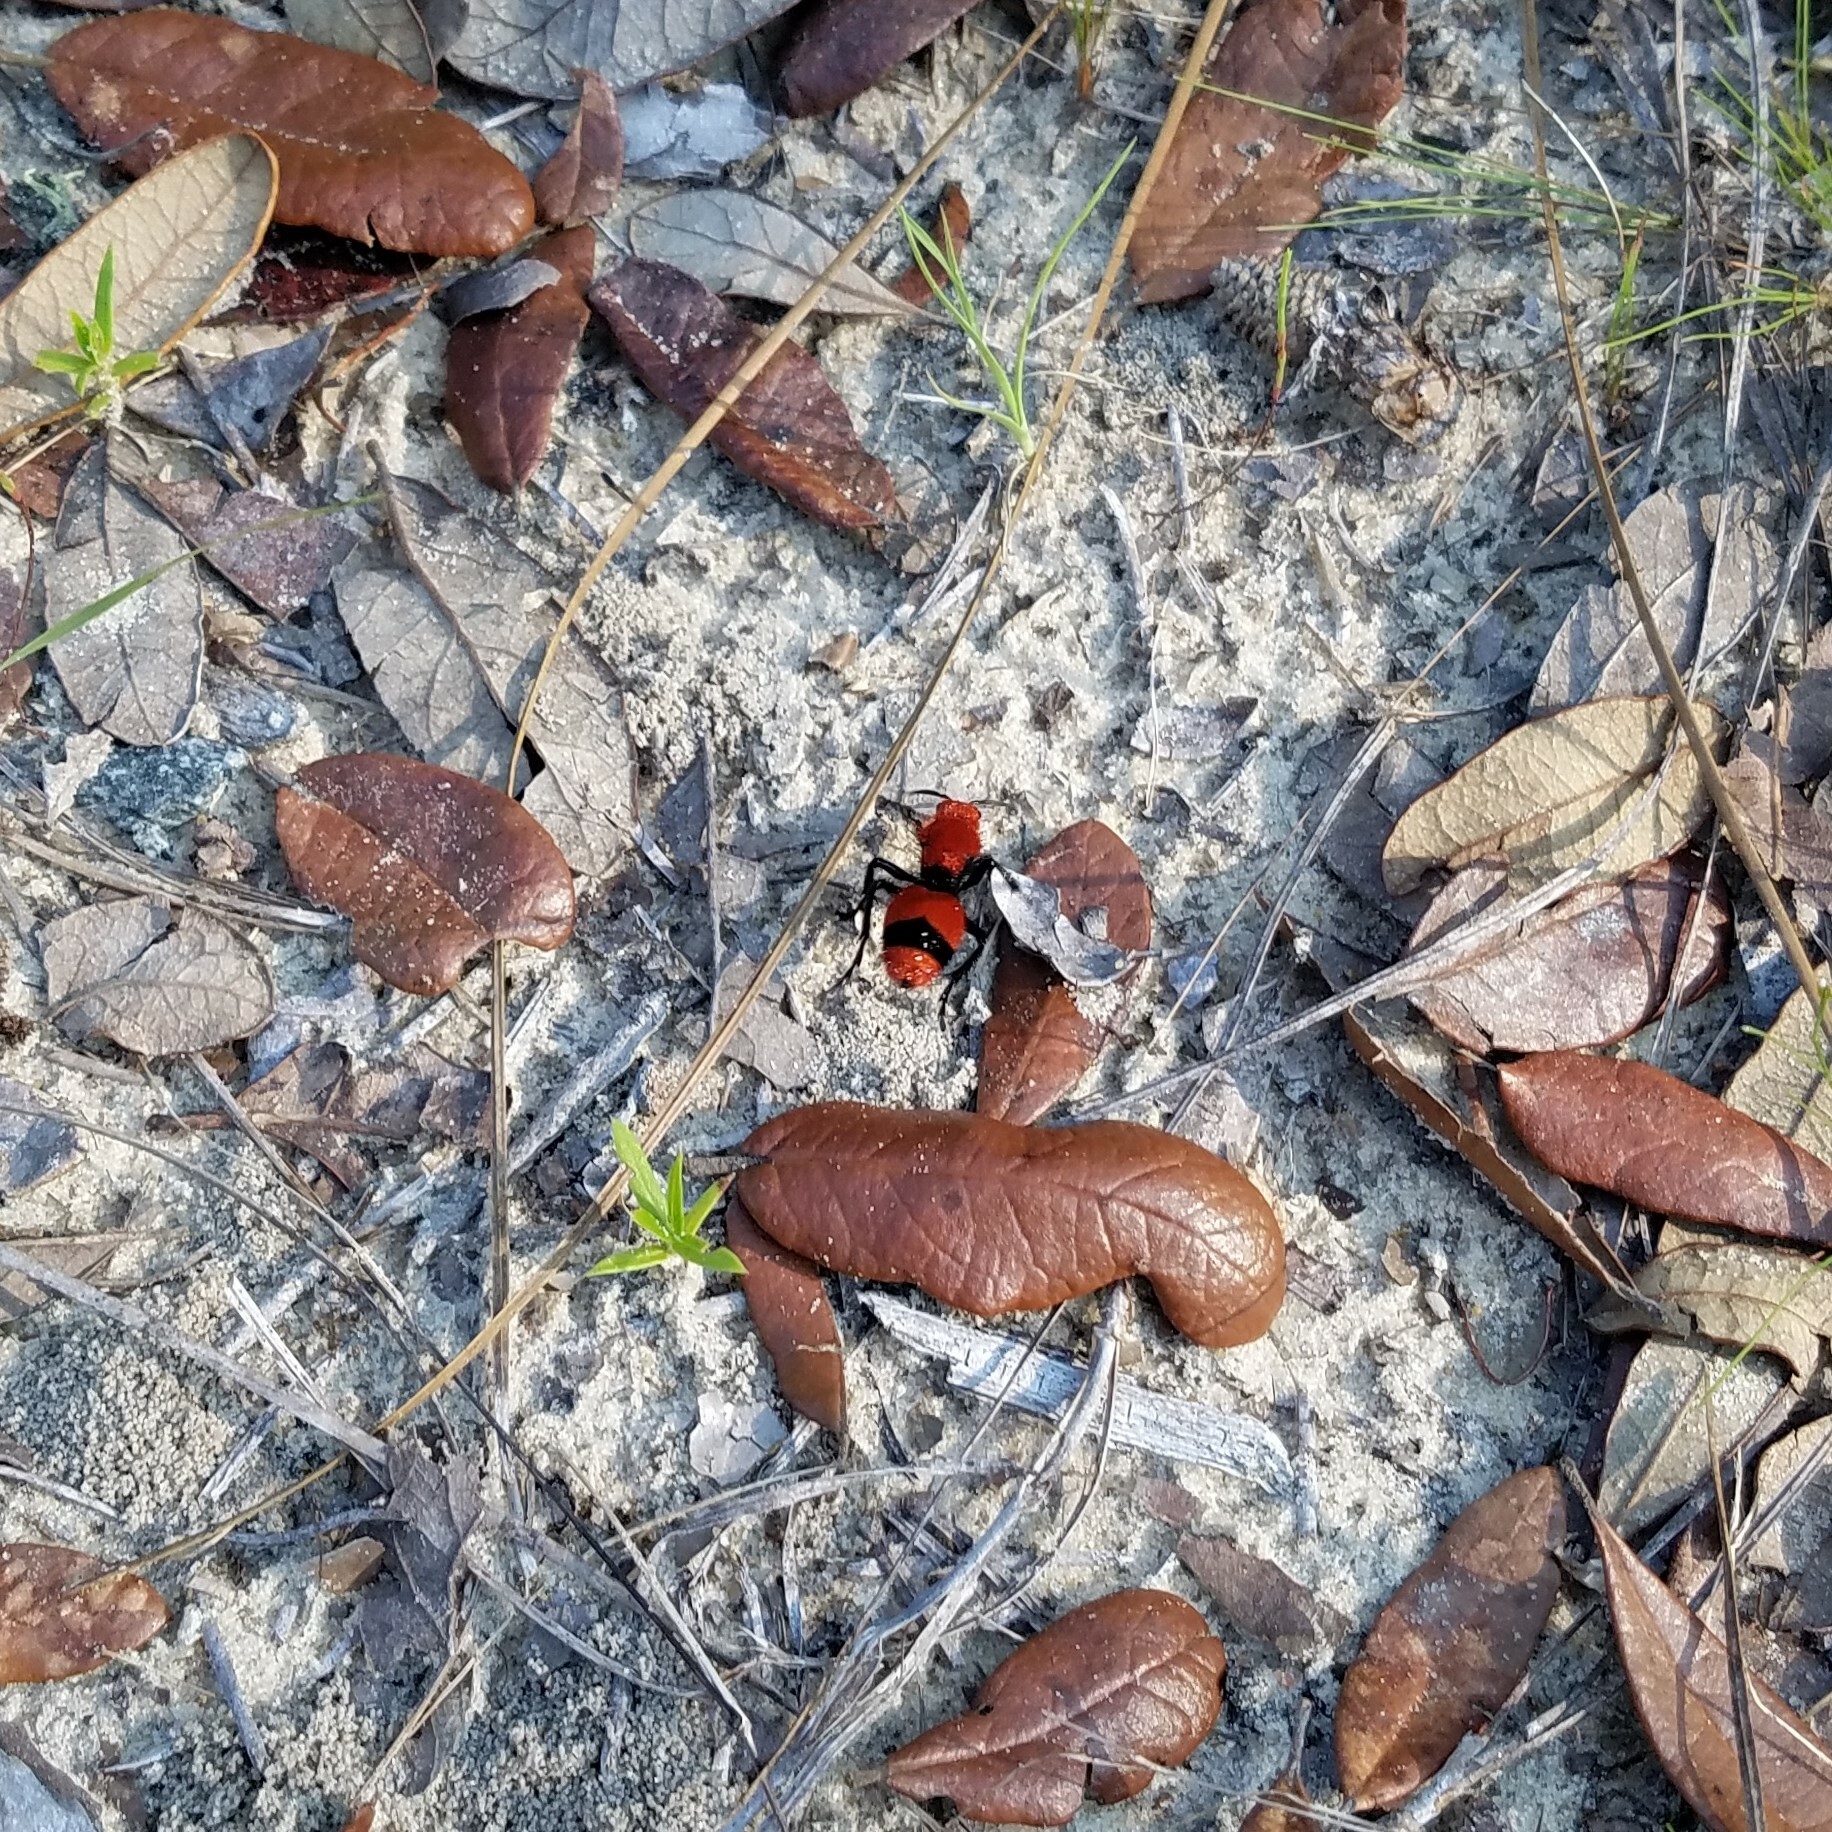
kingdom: Animalia
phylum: Arthropoda
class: Insecta
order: Hymenoptera
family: Mutillidae
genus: Dasymutilla
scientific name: Dasymutilla occidentalis
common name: Common eastern velvet ant
